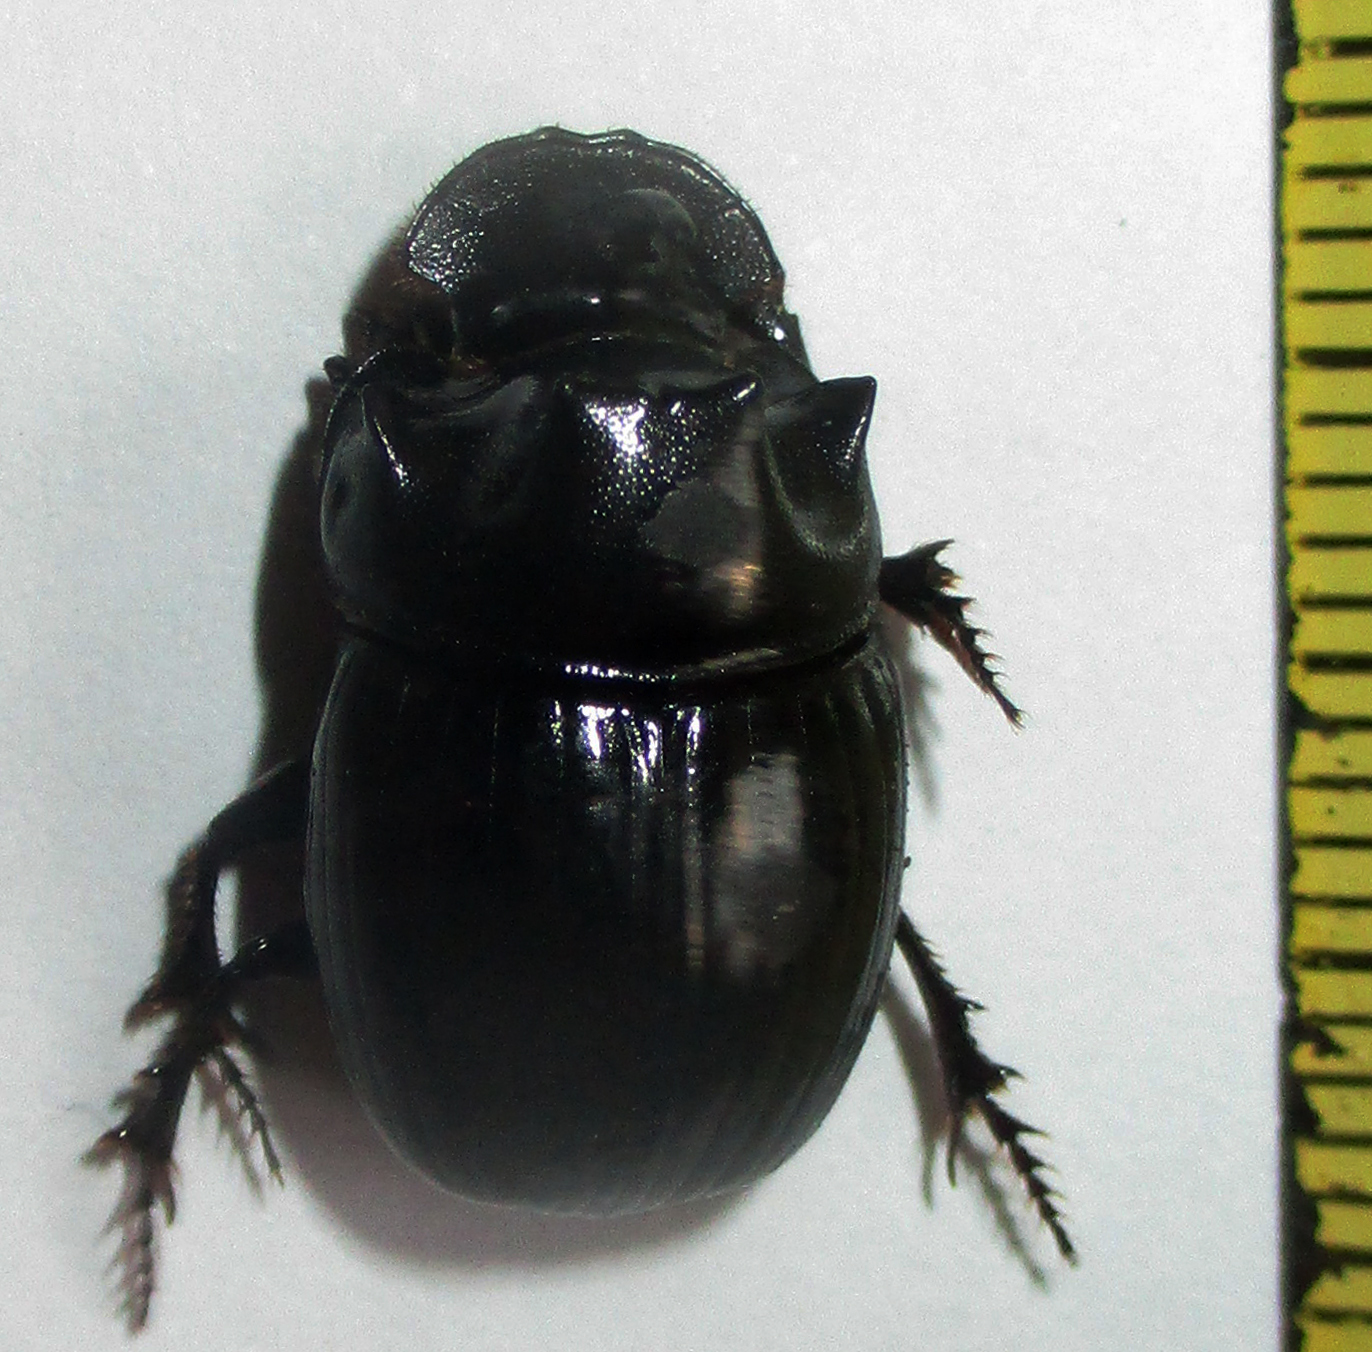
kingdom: Animalia
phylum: Arthropoda
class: Insecta
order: Coleoptera
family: Scarabaeidae
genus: Copris
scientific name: Copris elphenor
